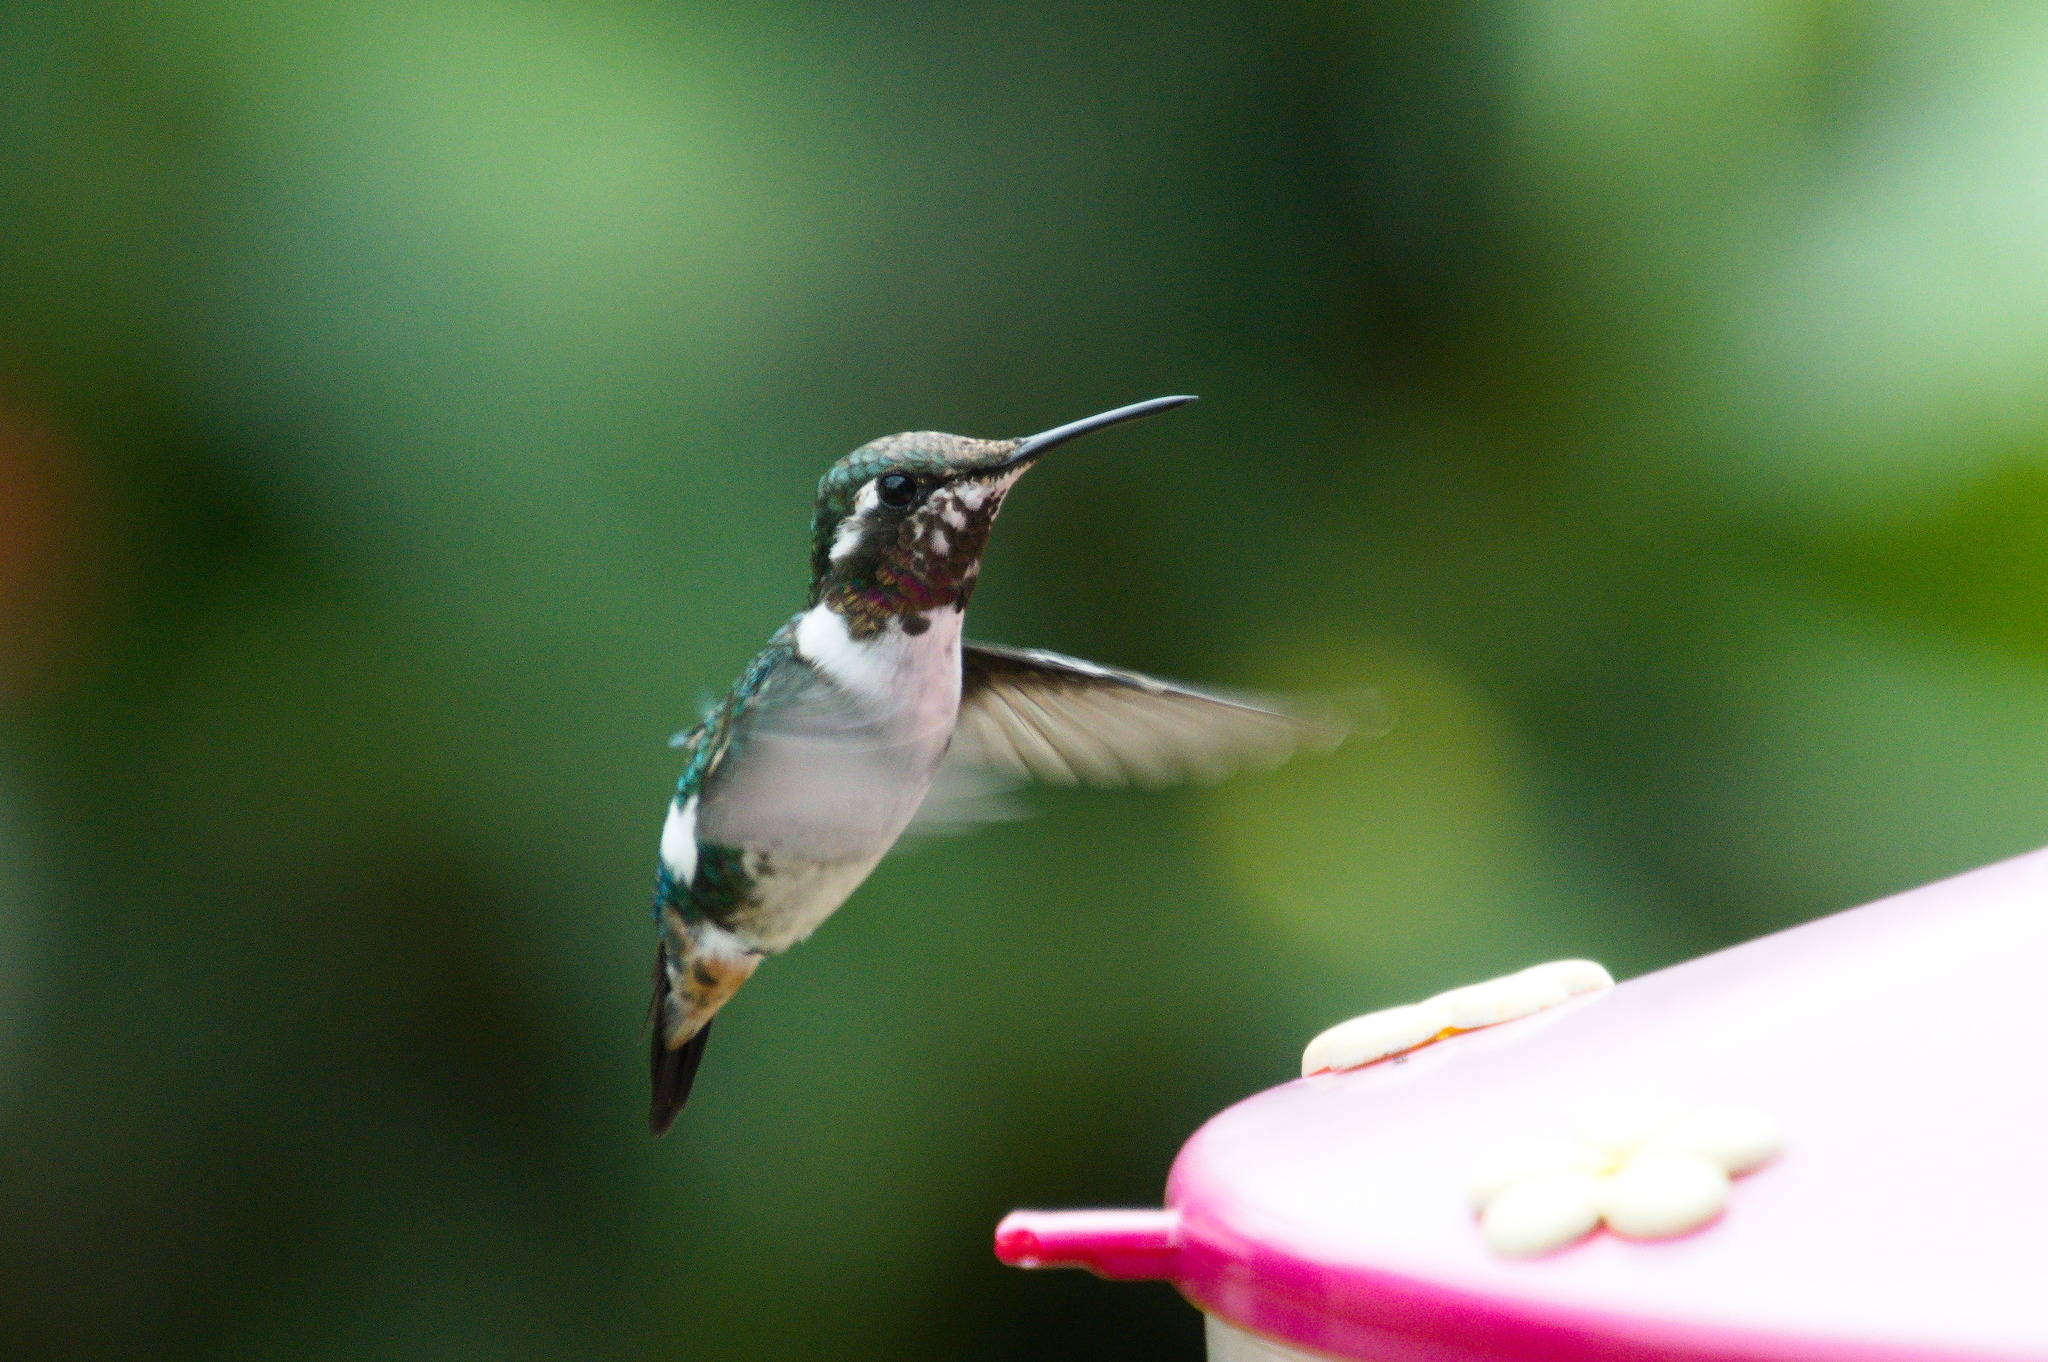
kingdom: Animalia
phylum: Chordata
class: Aves
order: Apodiformes
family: Trochilidae
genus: Chaetocercus
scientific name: Chaetocercus mulsant
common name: White-bellied woodstar
